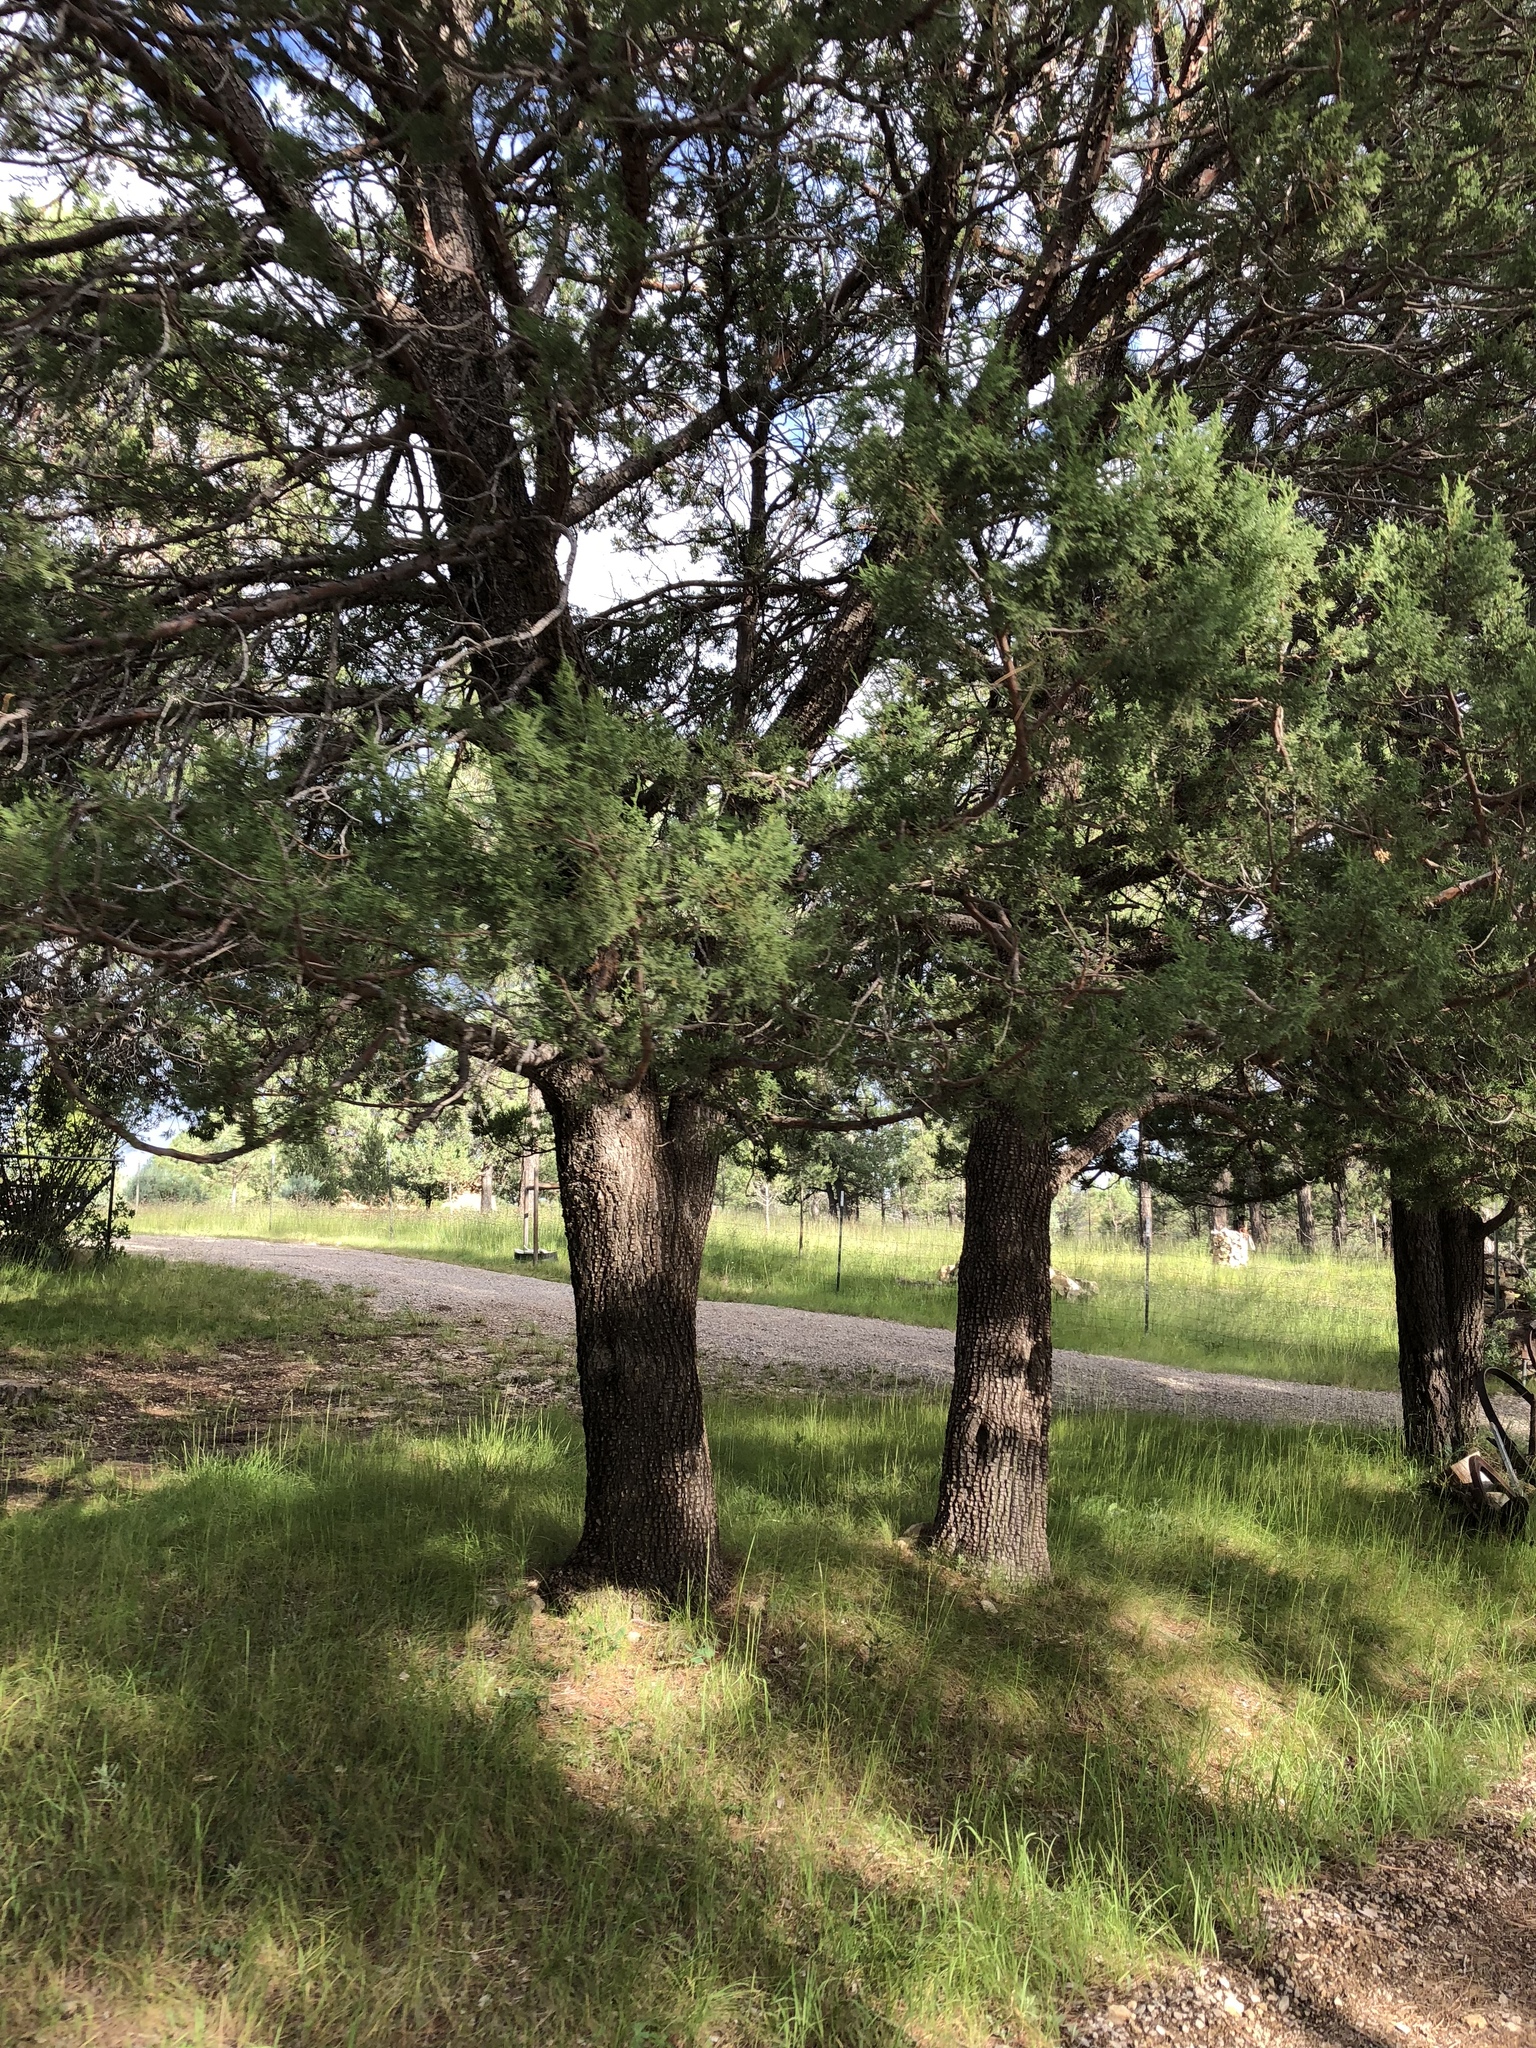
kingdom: Plantae
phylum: Tracheophyta
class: Pinopsida
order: Pinales
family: Cupressaceae
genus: Juniperus
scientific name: Juniperus deppeana
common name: Alligator juniper
